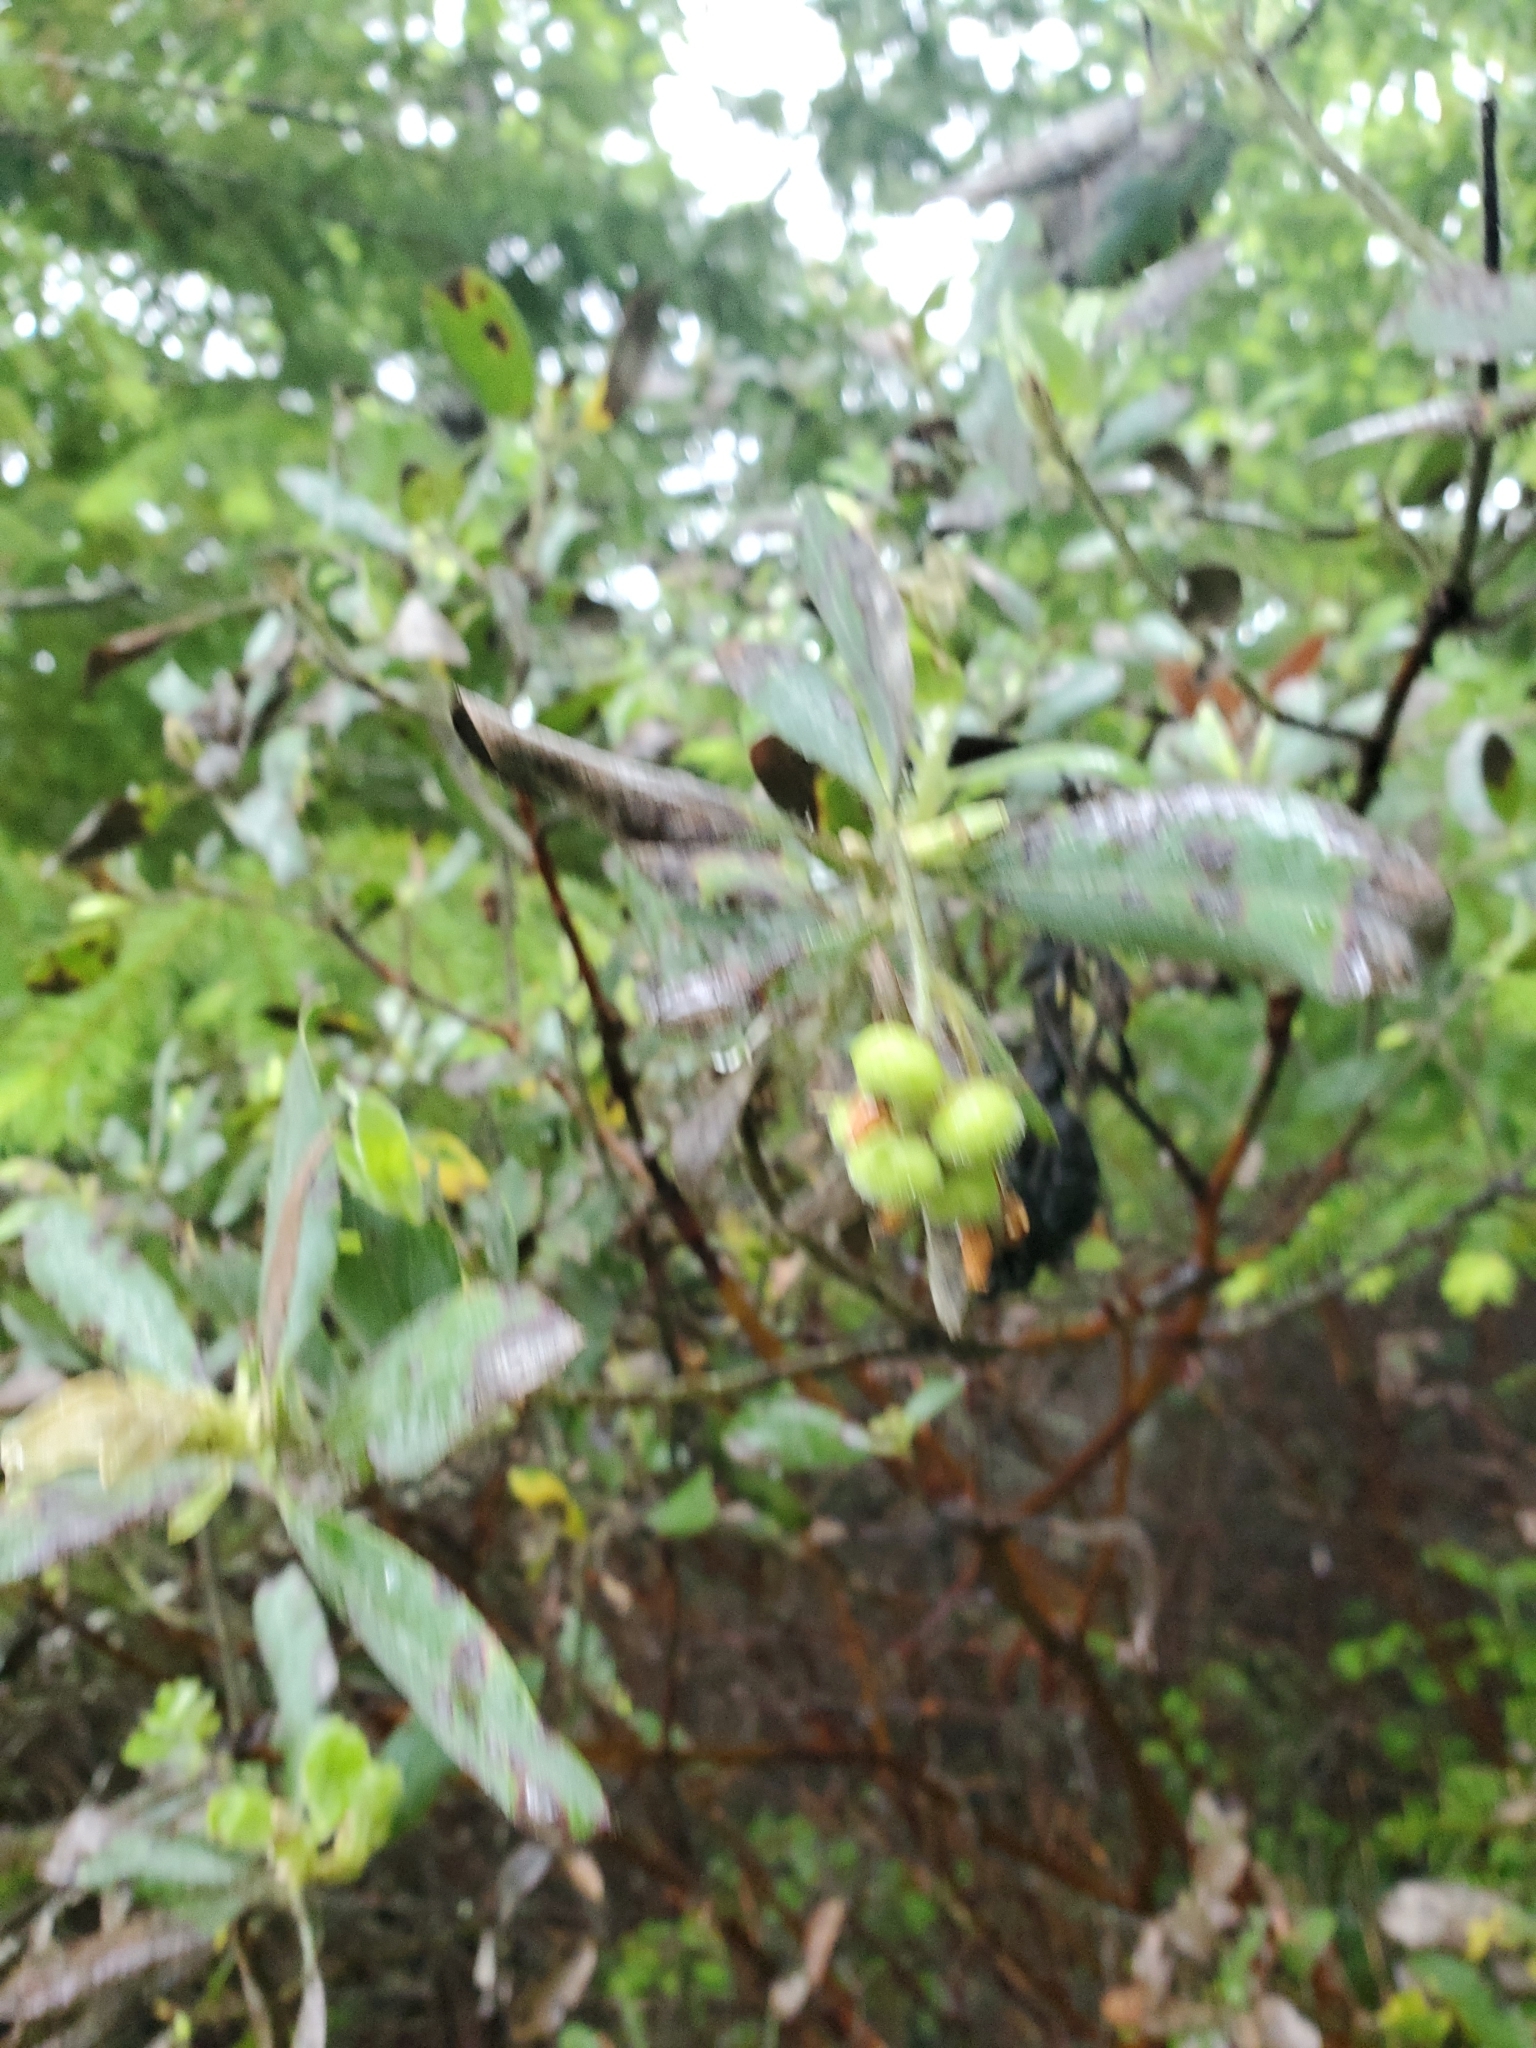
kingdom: Plantae
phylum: Tracheophyta
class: Magnoliopsida
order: Ericales
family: Ericaceae
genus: Arctostaphylos
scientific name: Arctostaphylos columbiana
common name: Bristly bearberry
